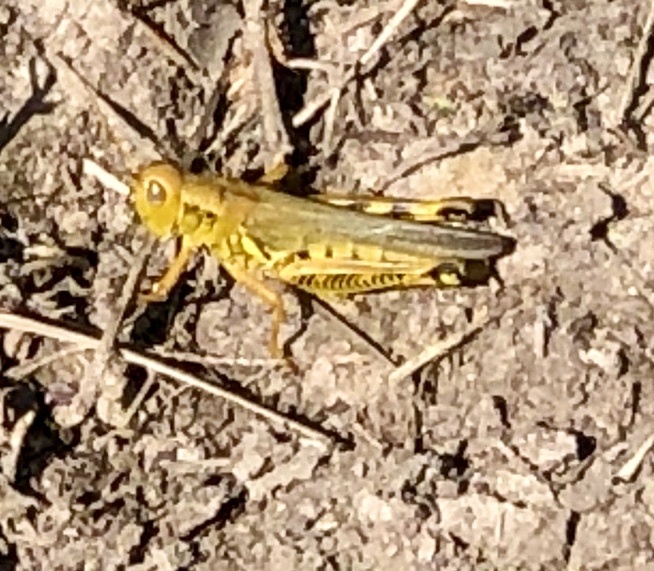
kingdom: Animalia
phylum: Arthropoda
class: Insecta
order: Orthoptera
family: Acrididae
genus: Melanoplus
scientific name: Melanoplus differentialis
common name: Differential grasshopper
